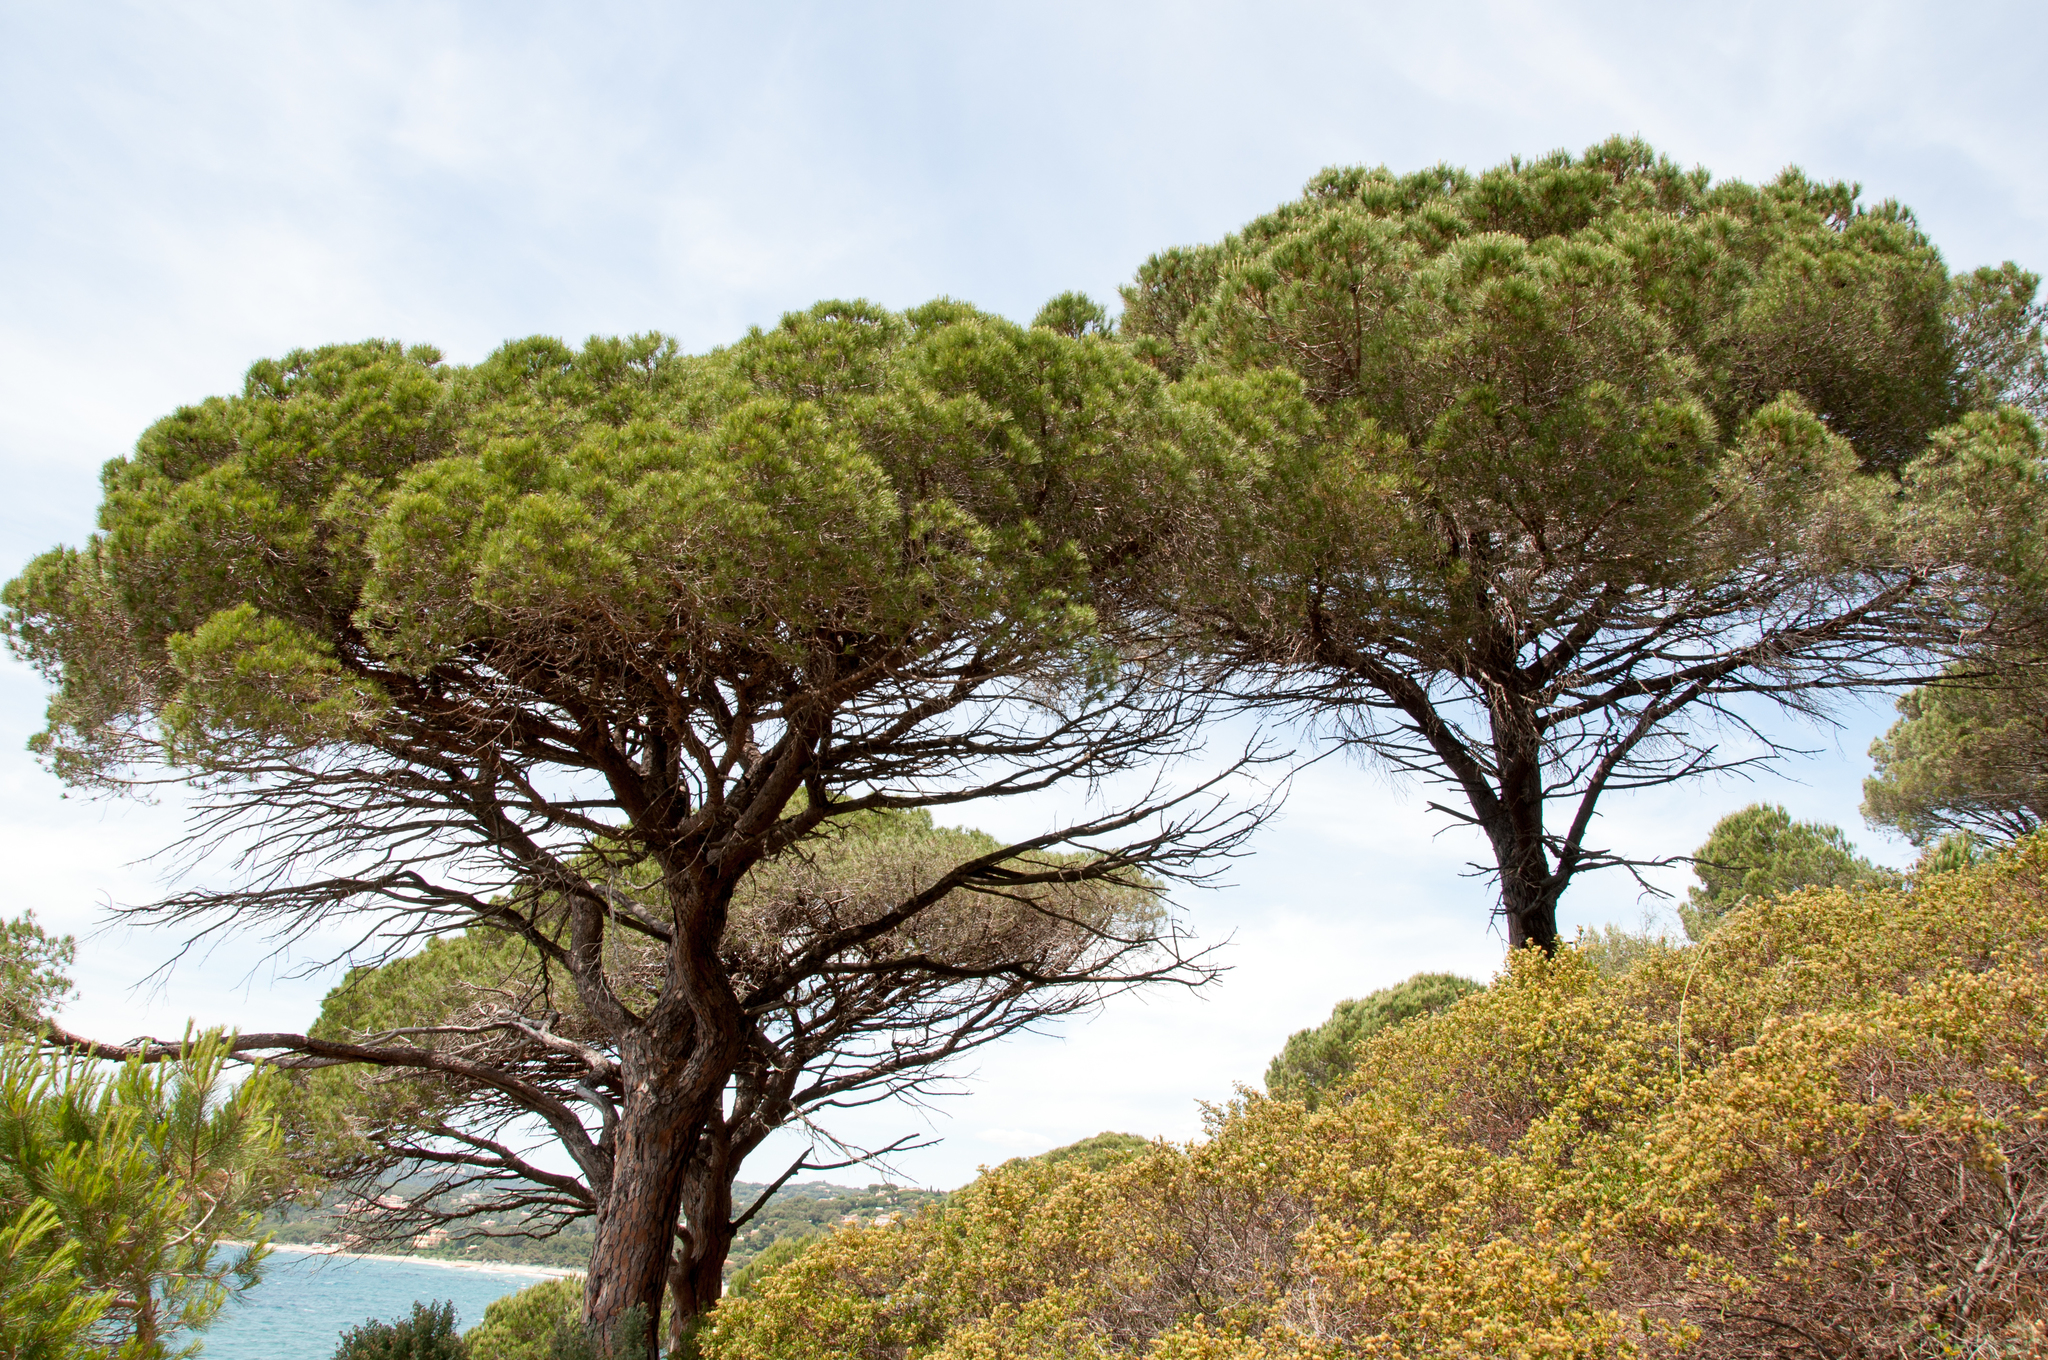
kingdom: Plantae
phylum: Tracheophyta
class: Pinopsida
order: Pinales
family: Pinaceae
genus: Pinus
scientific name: Pinus pinea
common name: Italian stone pine
